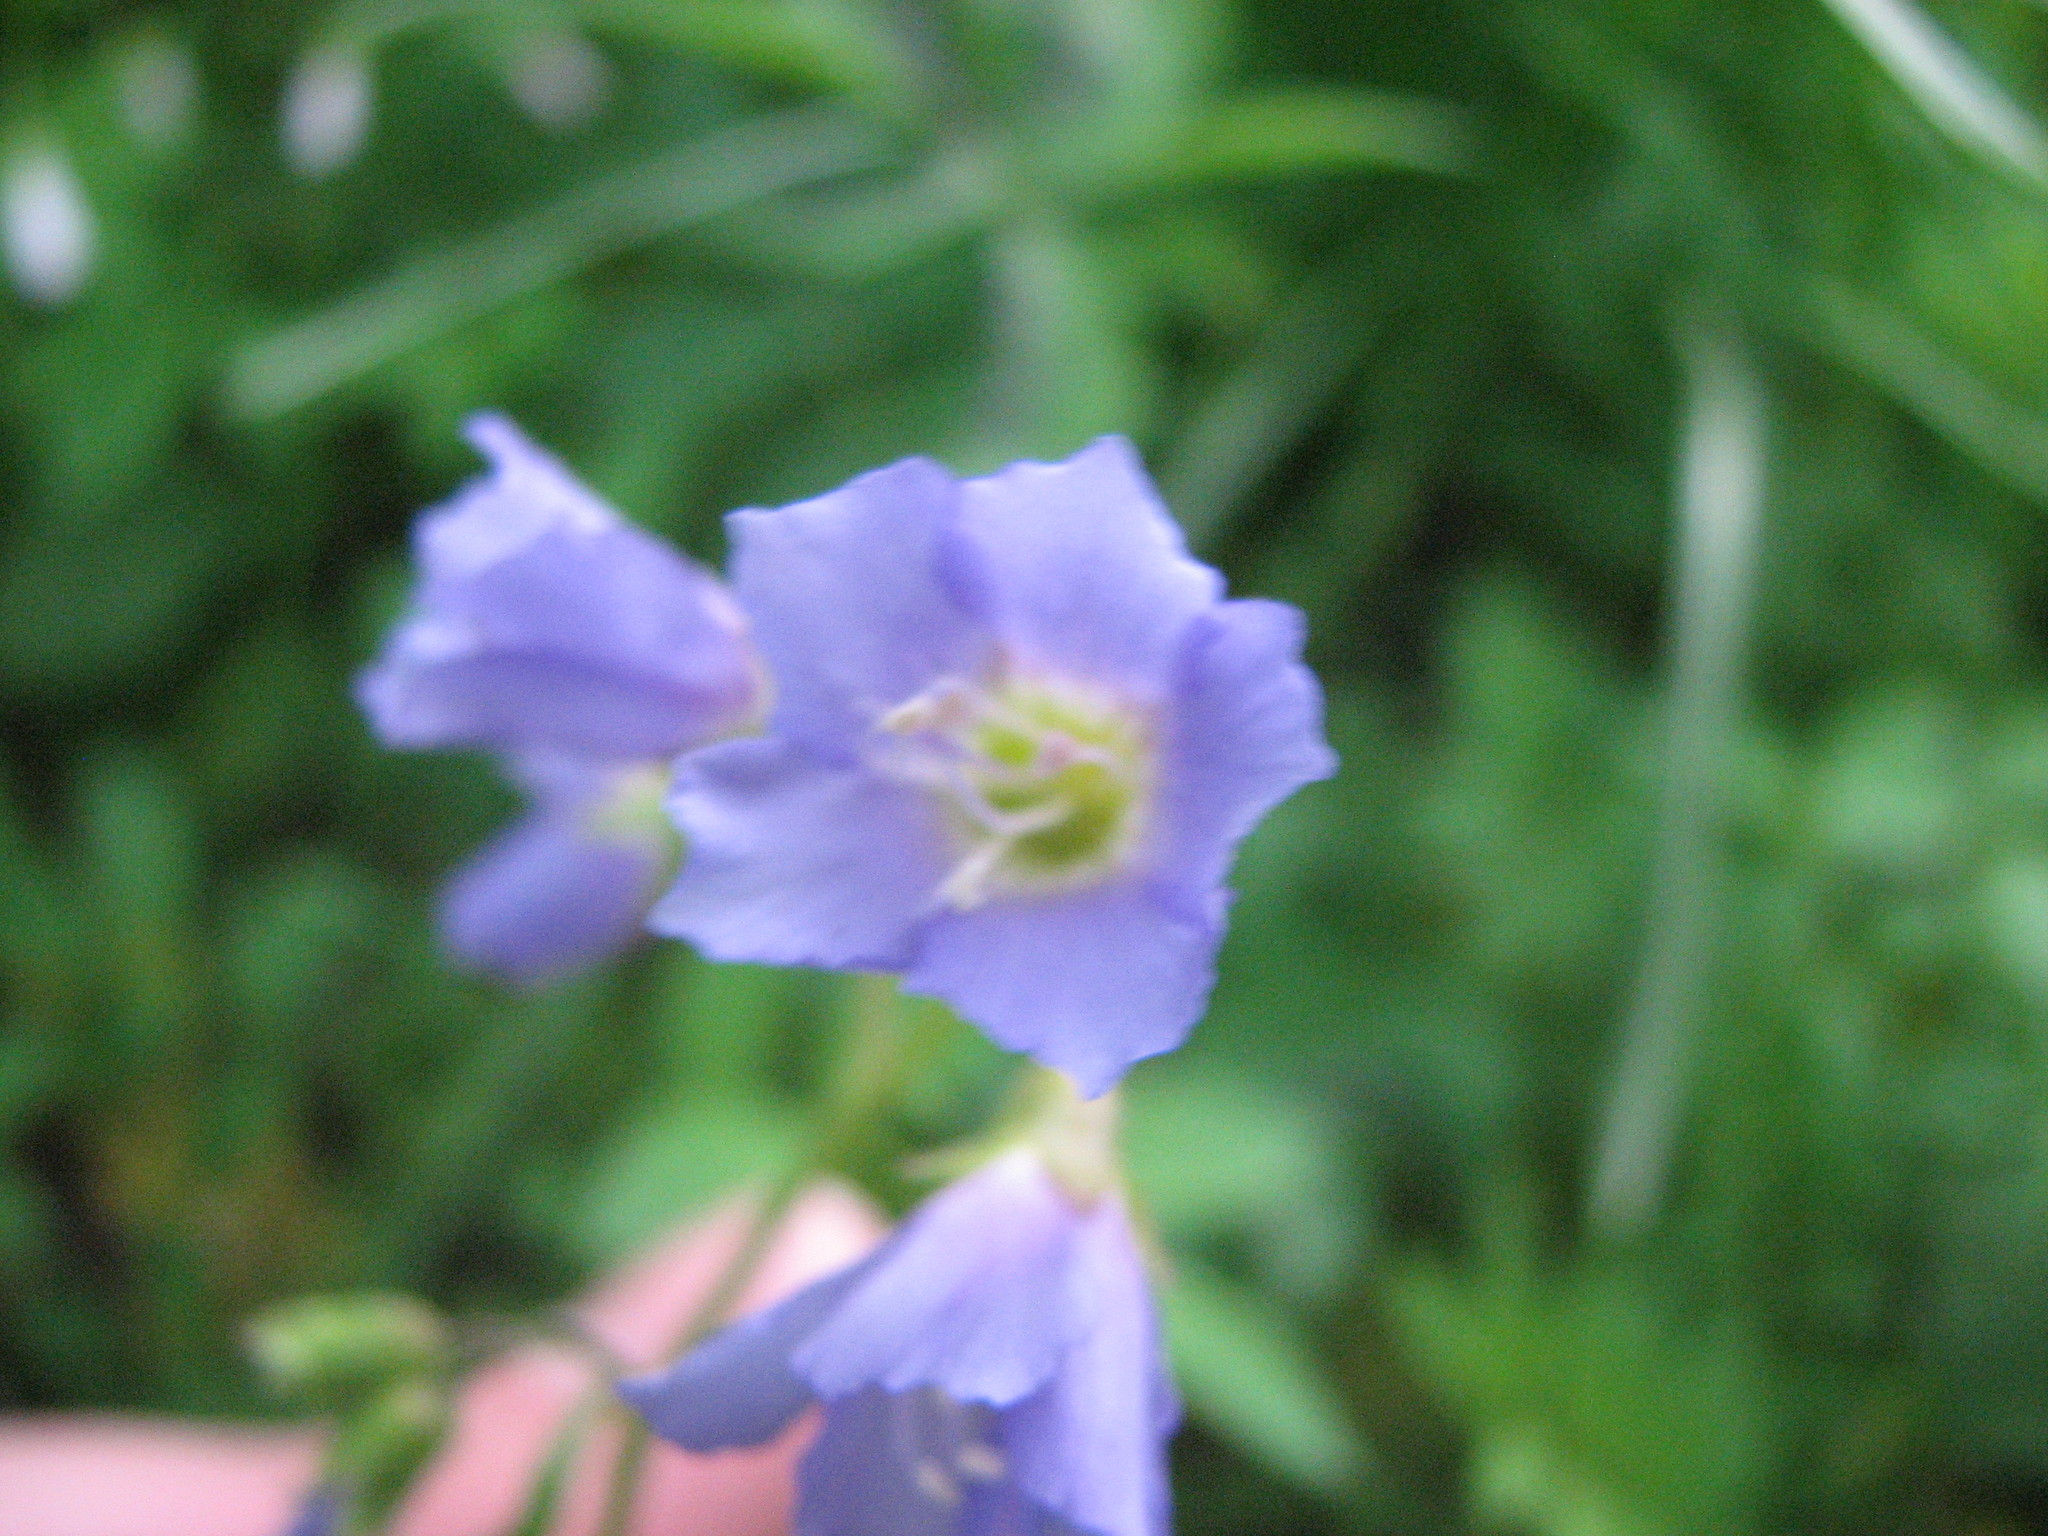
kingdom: Plantae
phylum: Tracheophyta
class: Magnoliopsida
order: Ericales
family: Polemoniaceae
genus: Polemonium
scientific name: Polemonium reptans
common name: Creeping jacob's-ladder
